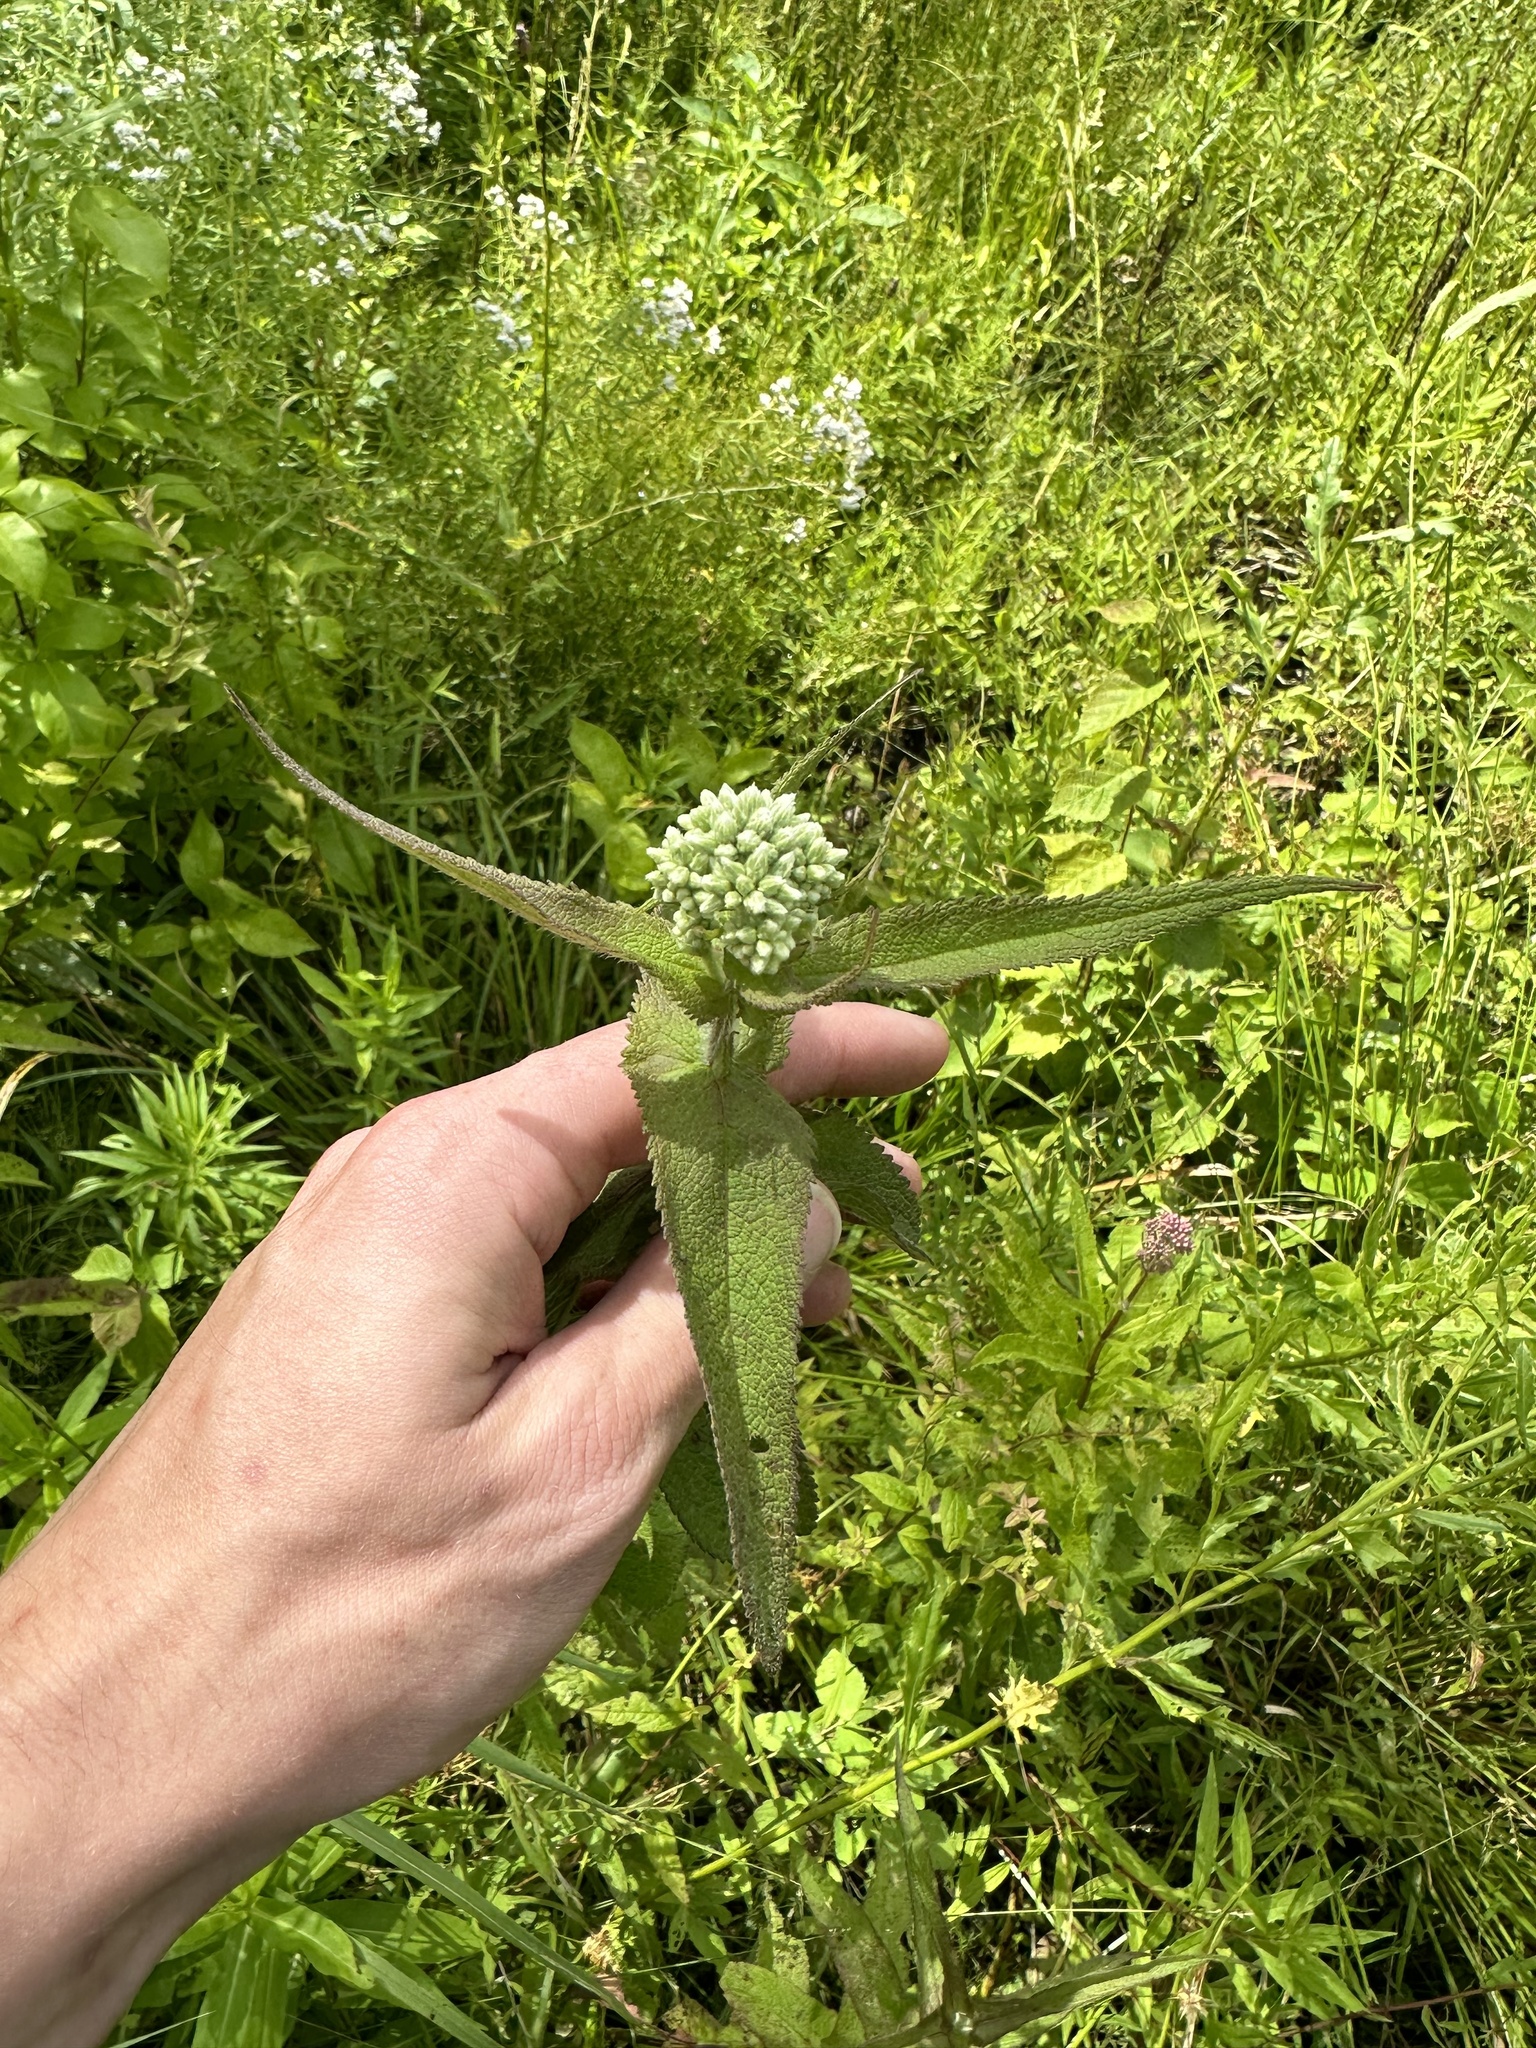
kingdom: Plantae
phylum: Tracheophyta
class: Magnoliopsida
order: Asterales
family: Asteraceae
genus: Eupatorium
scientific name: Eupatorium perfoliatum
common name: Boneset
